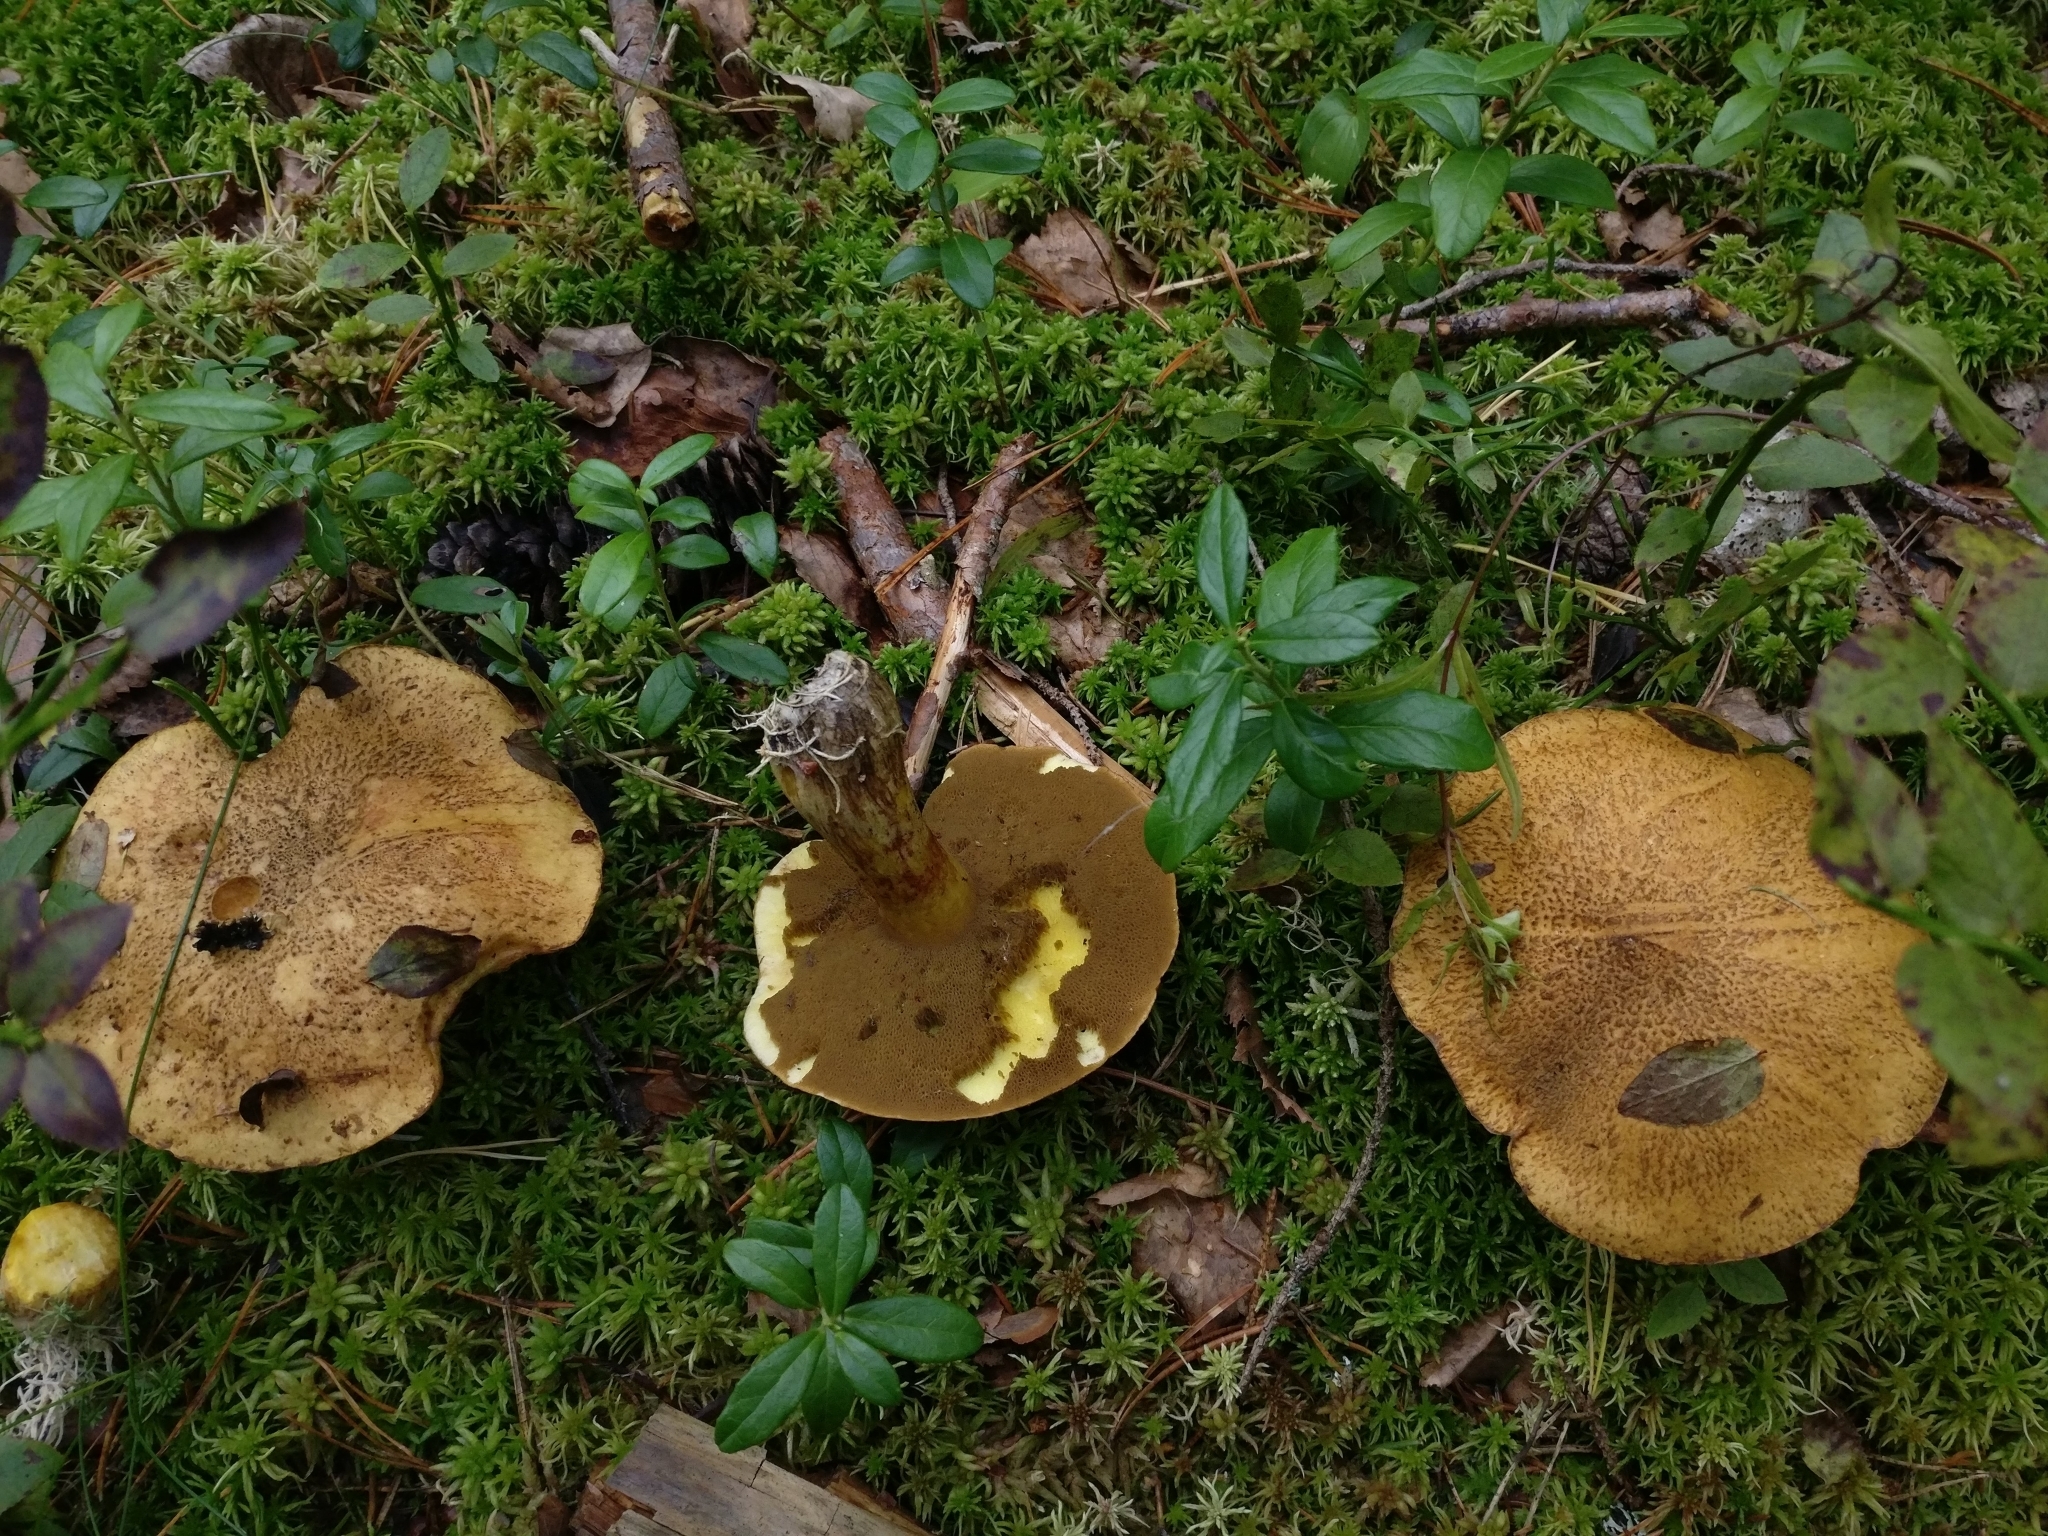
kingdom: Fungi
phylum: Basidiomycota
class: Agaricomycetes
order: Boletales
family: Suillaceae
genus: Suillus
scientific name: Suillus variegatus
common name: Velvet bolete
